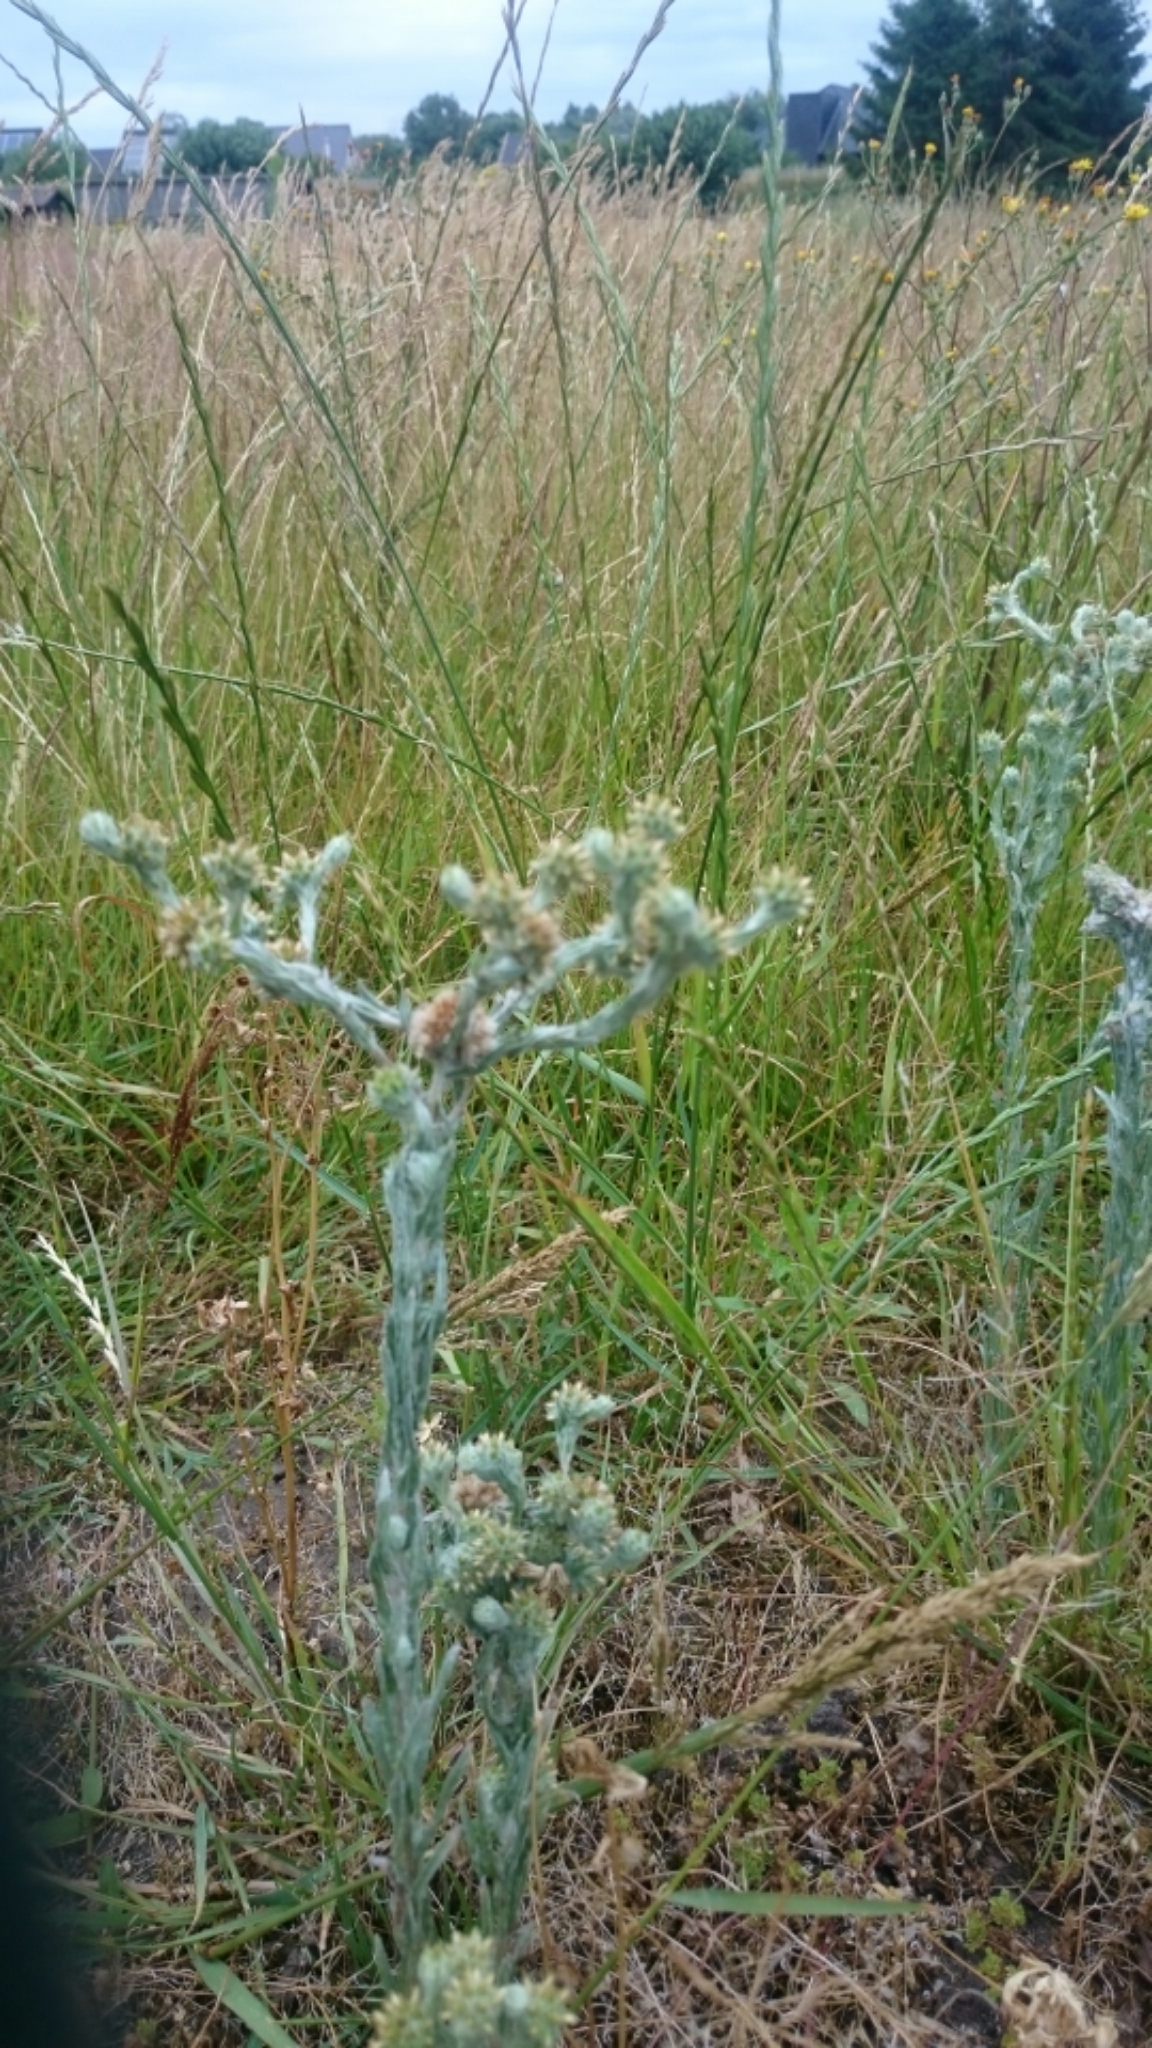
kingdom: Plantae
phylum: Tracheophyta
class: Magnoliopsida
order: Asterales
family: Asteraceae
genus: Filago
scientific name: Filago germanica
